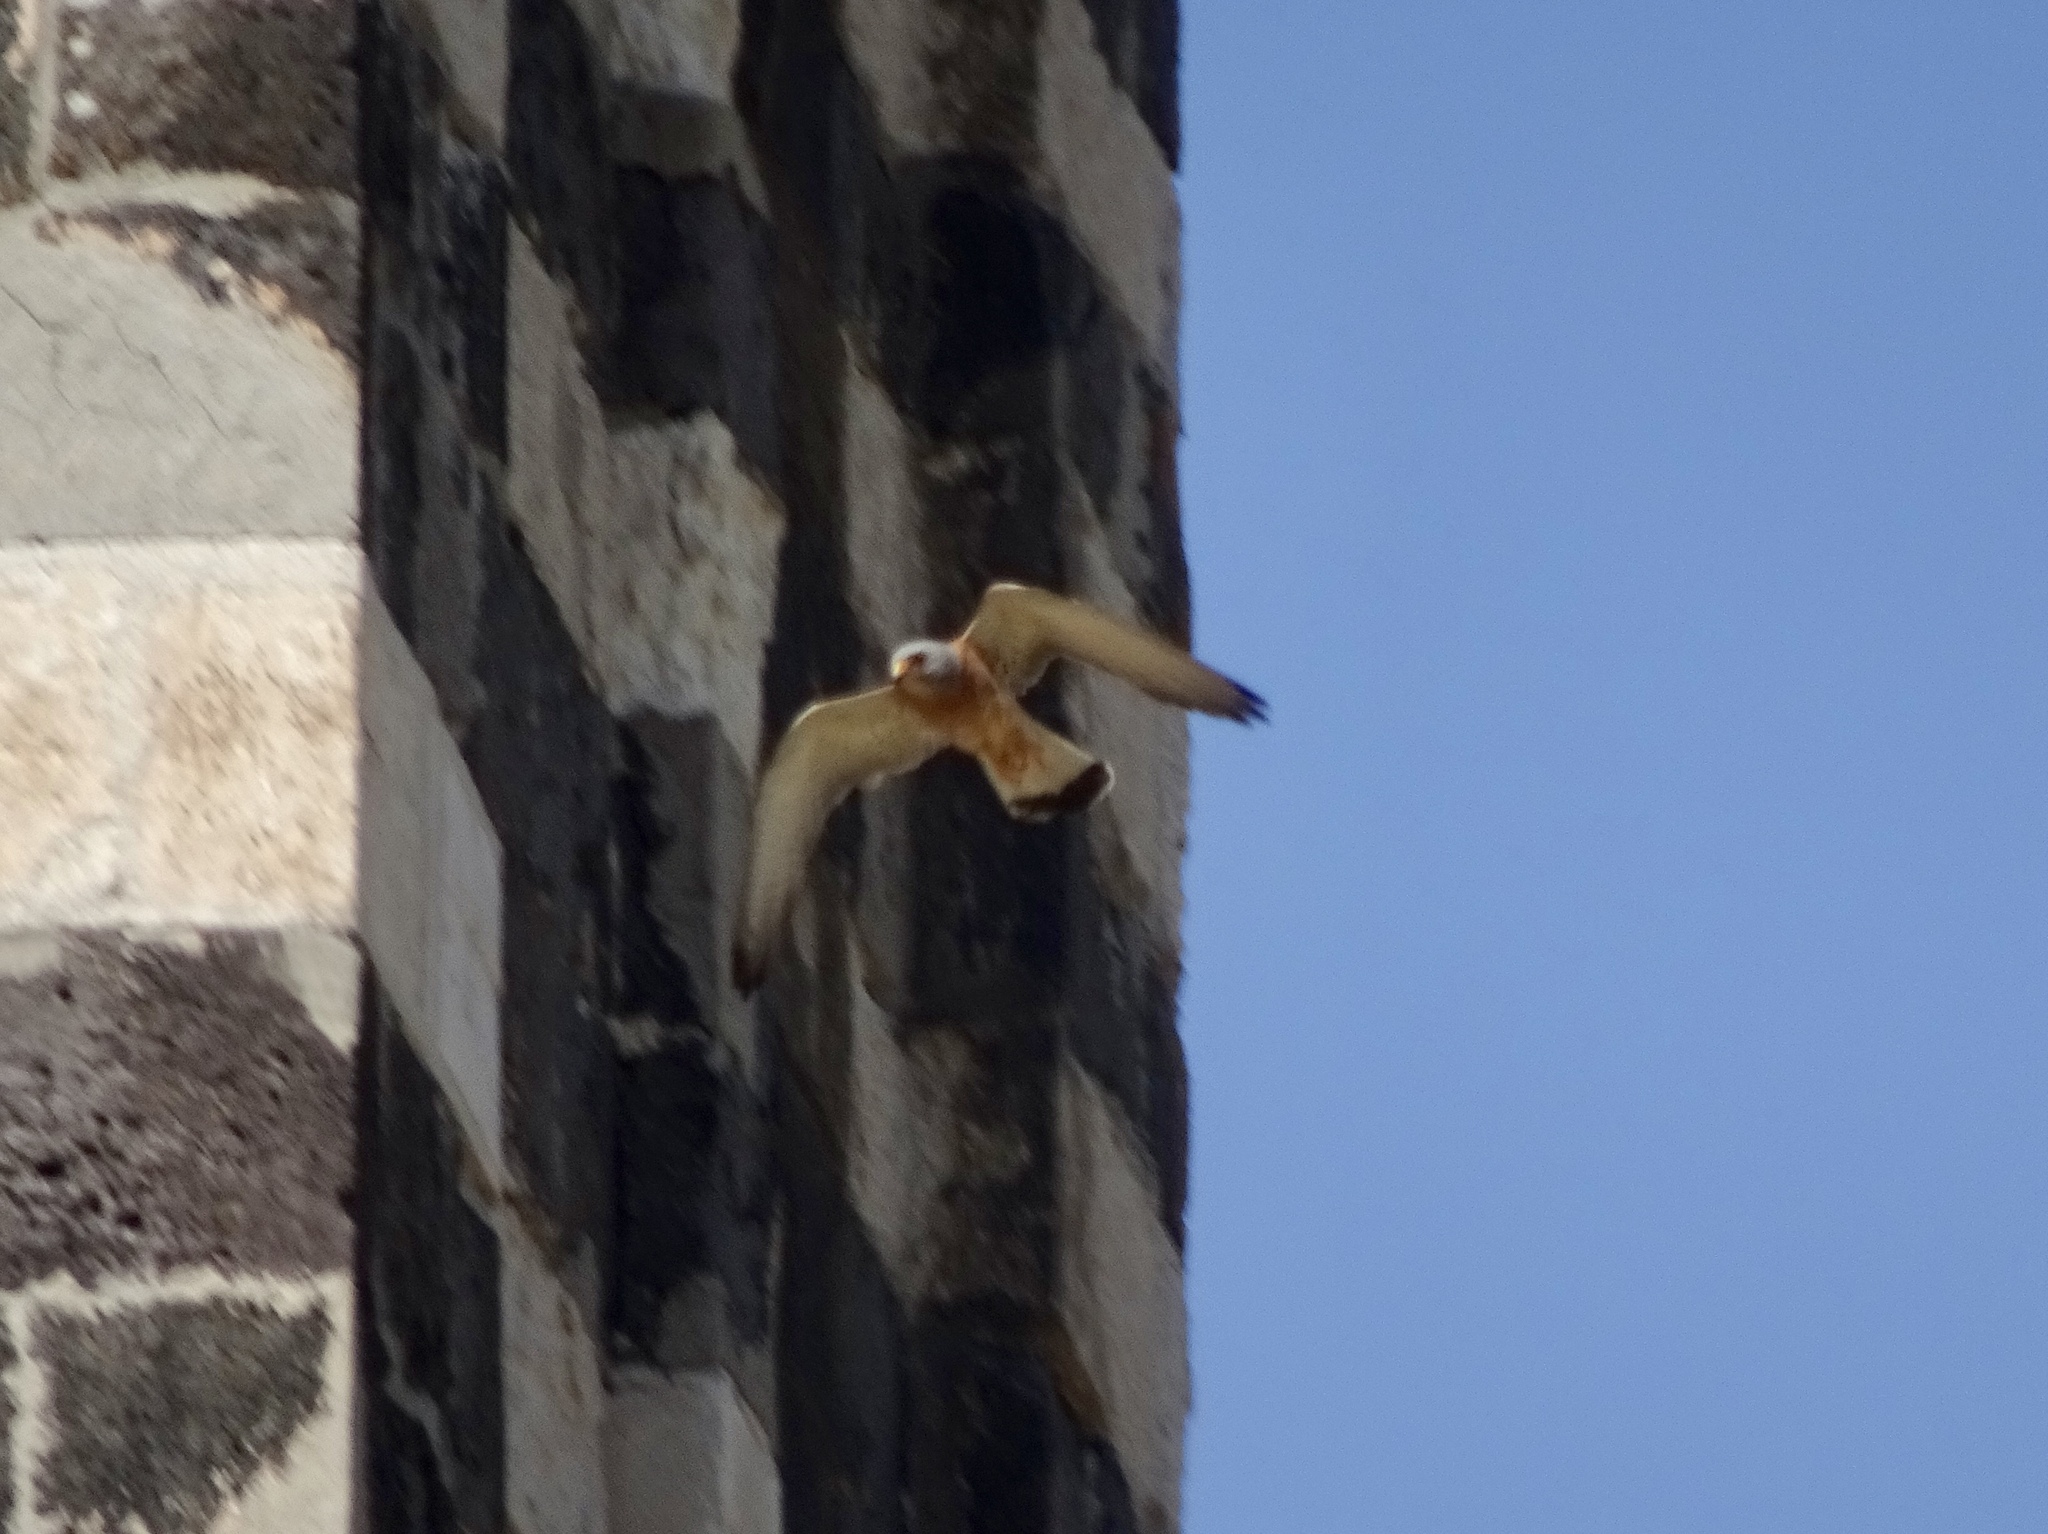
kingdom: Animalia
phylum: Chordata
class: Aves
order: Falconiformes
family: Falconidae
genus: Falco
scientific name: Falco naumanni
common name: Lesser kestrel
